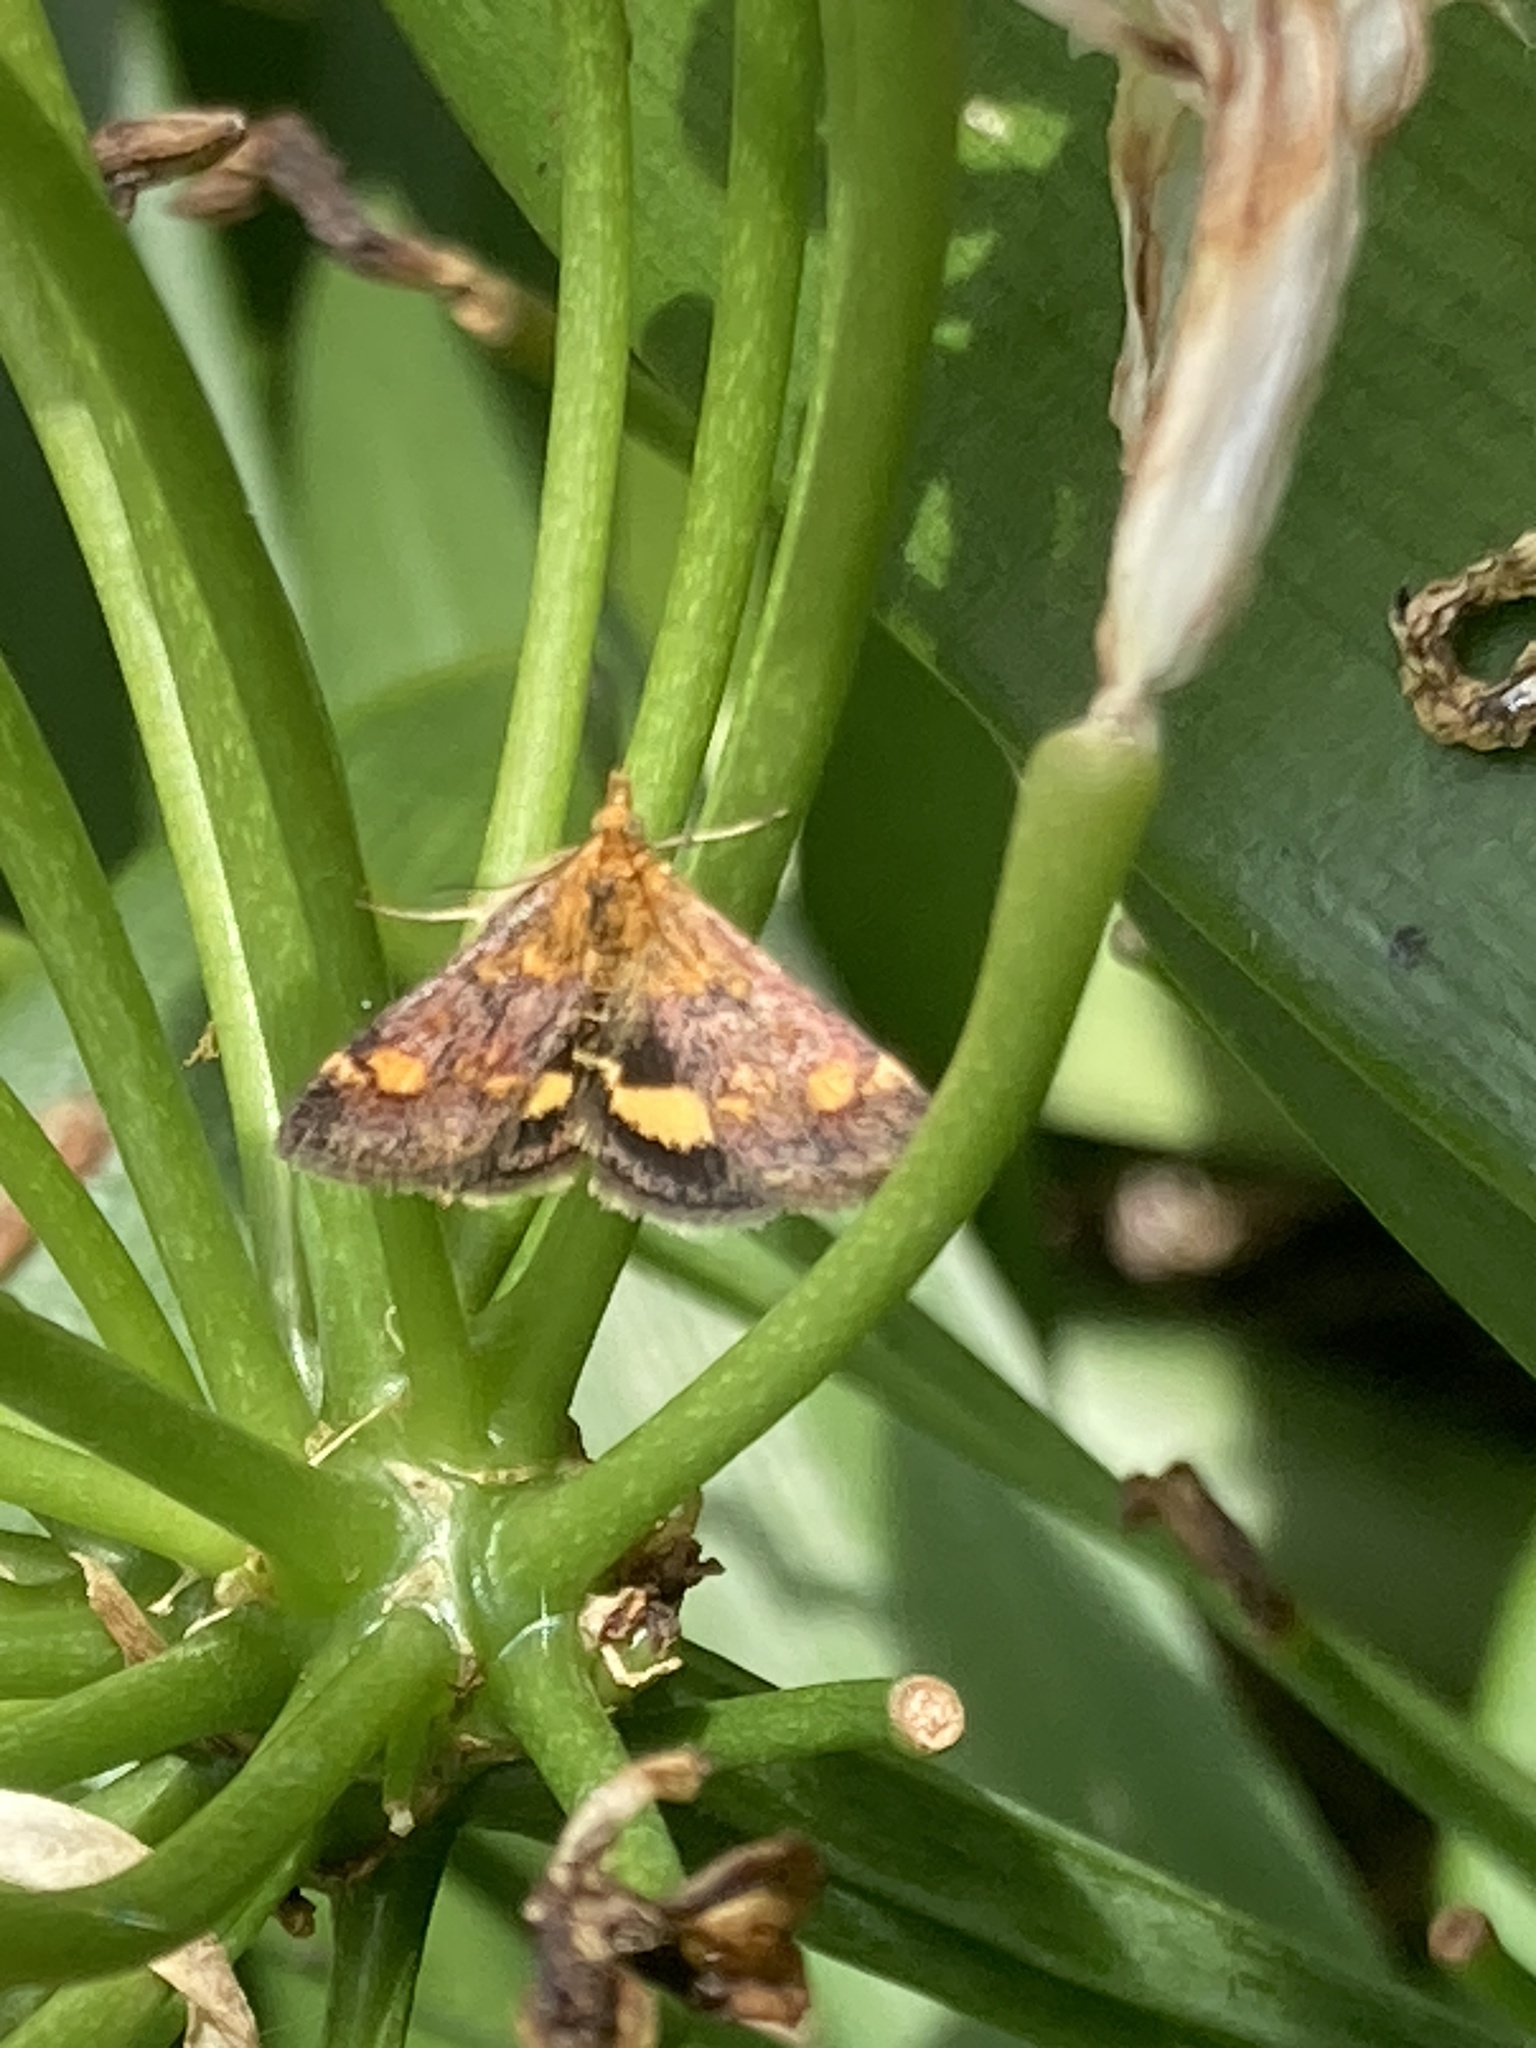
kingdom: Animalia
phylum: Arthropoda
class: Insecta
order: Lepidoptera
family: Crambidae
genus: Pyrausta
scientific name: Pyrausta aurata
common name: Small purple & gold
